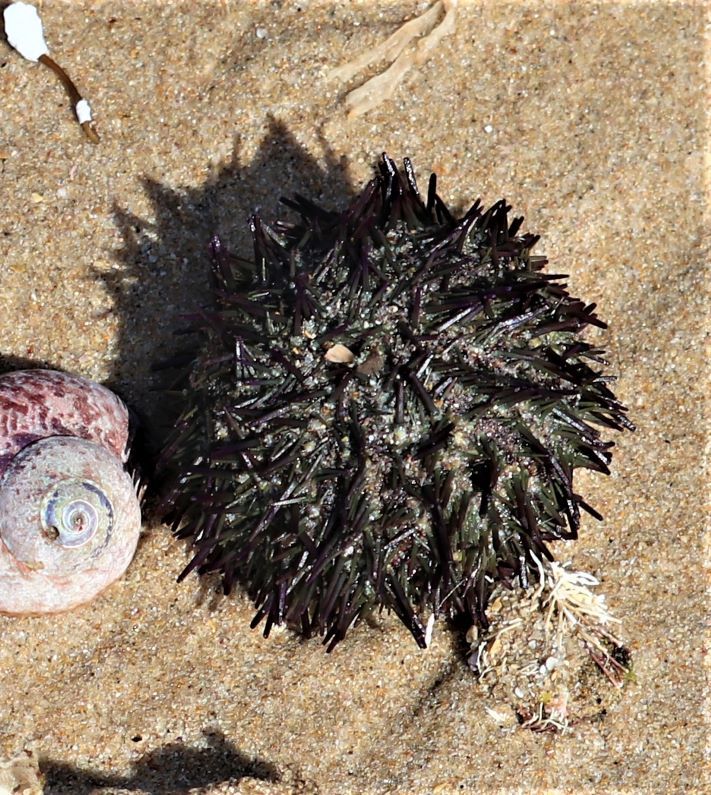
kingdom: Animalia
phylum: Echinodermata
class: Echinoidea
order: Camarodonta
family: Parechinidae
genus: Parechinus
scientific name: Parechinus angulosus
